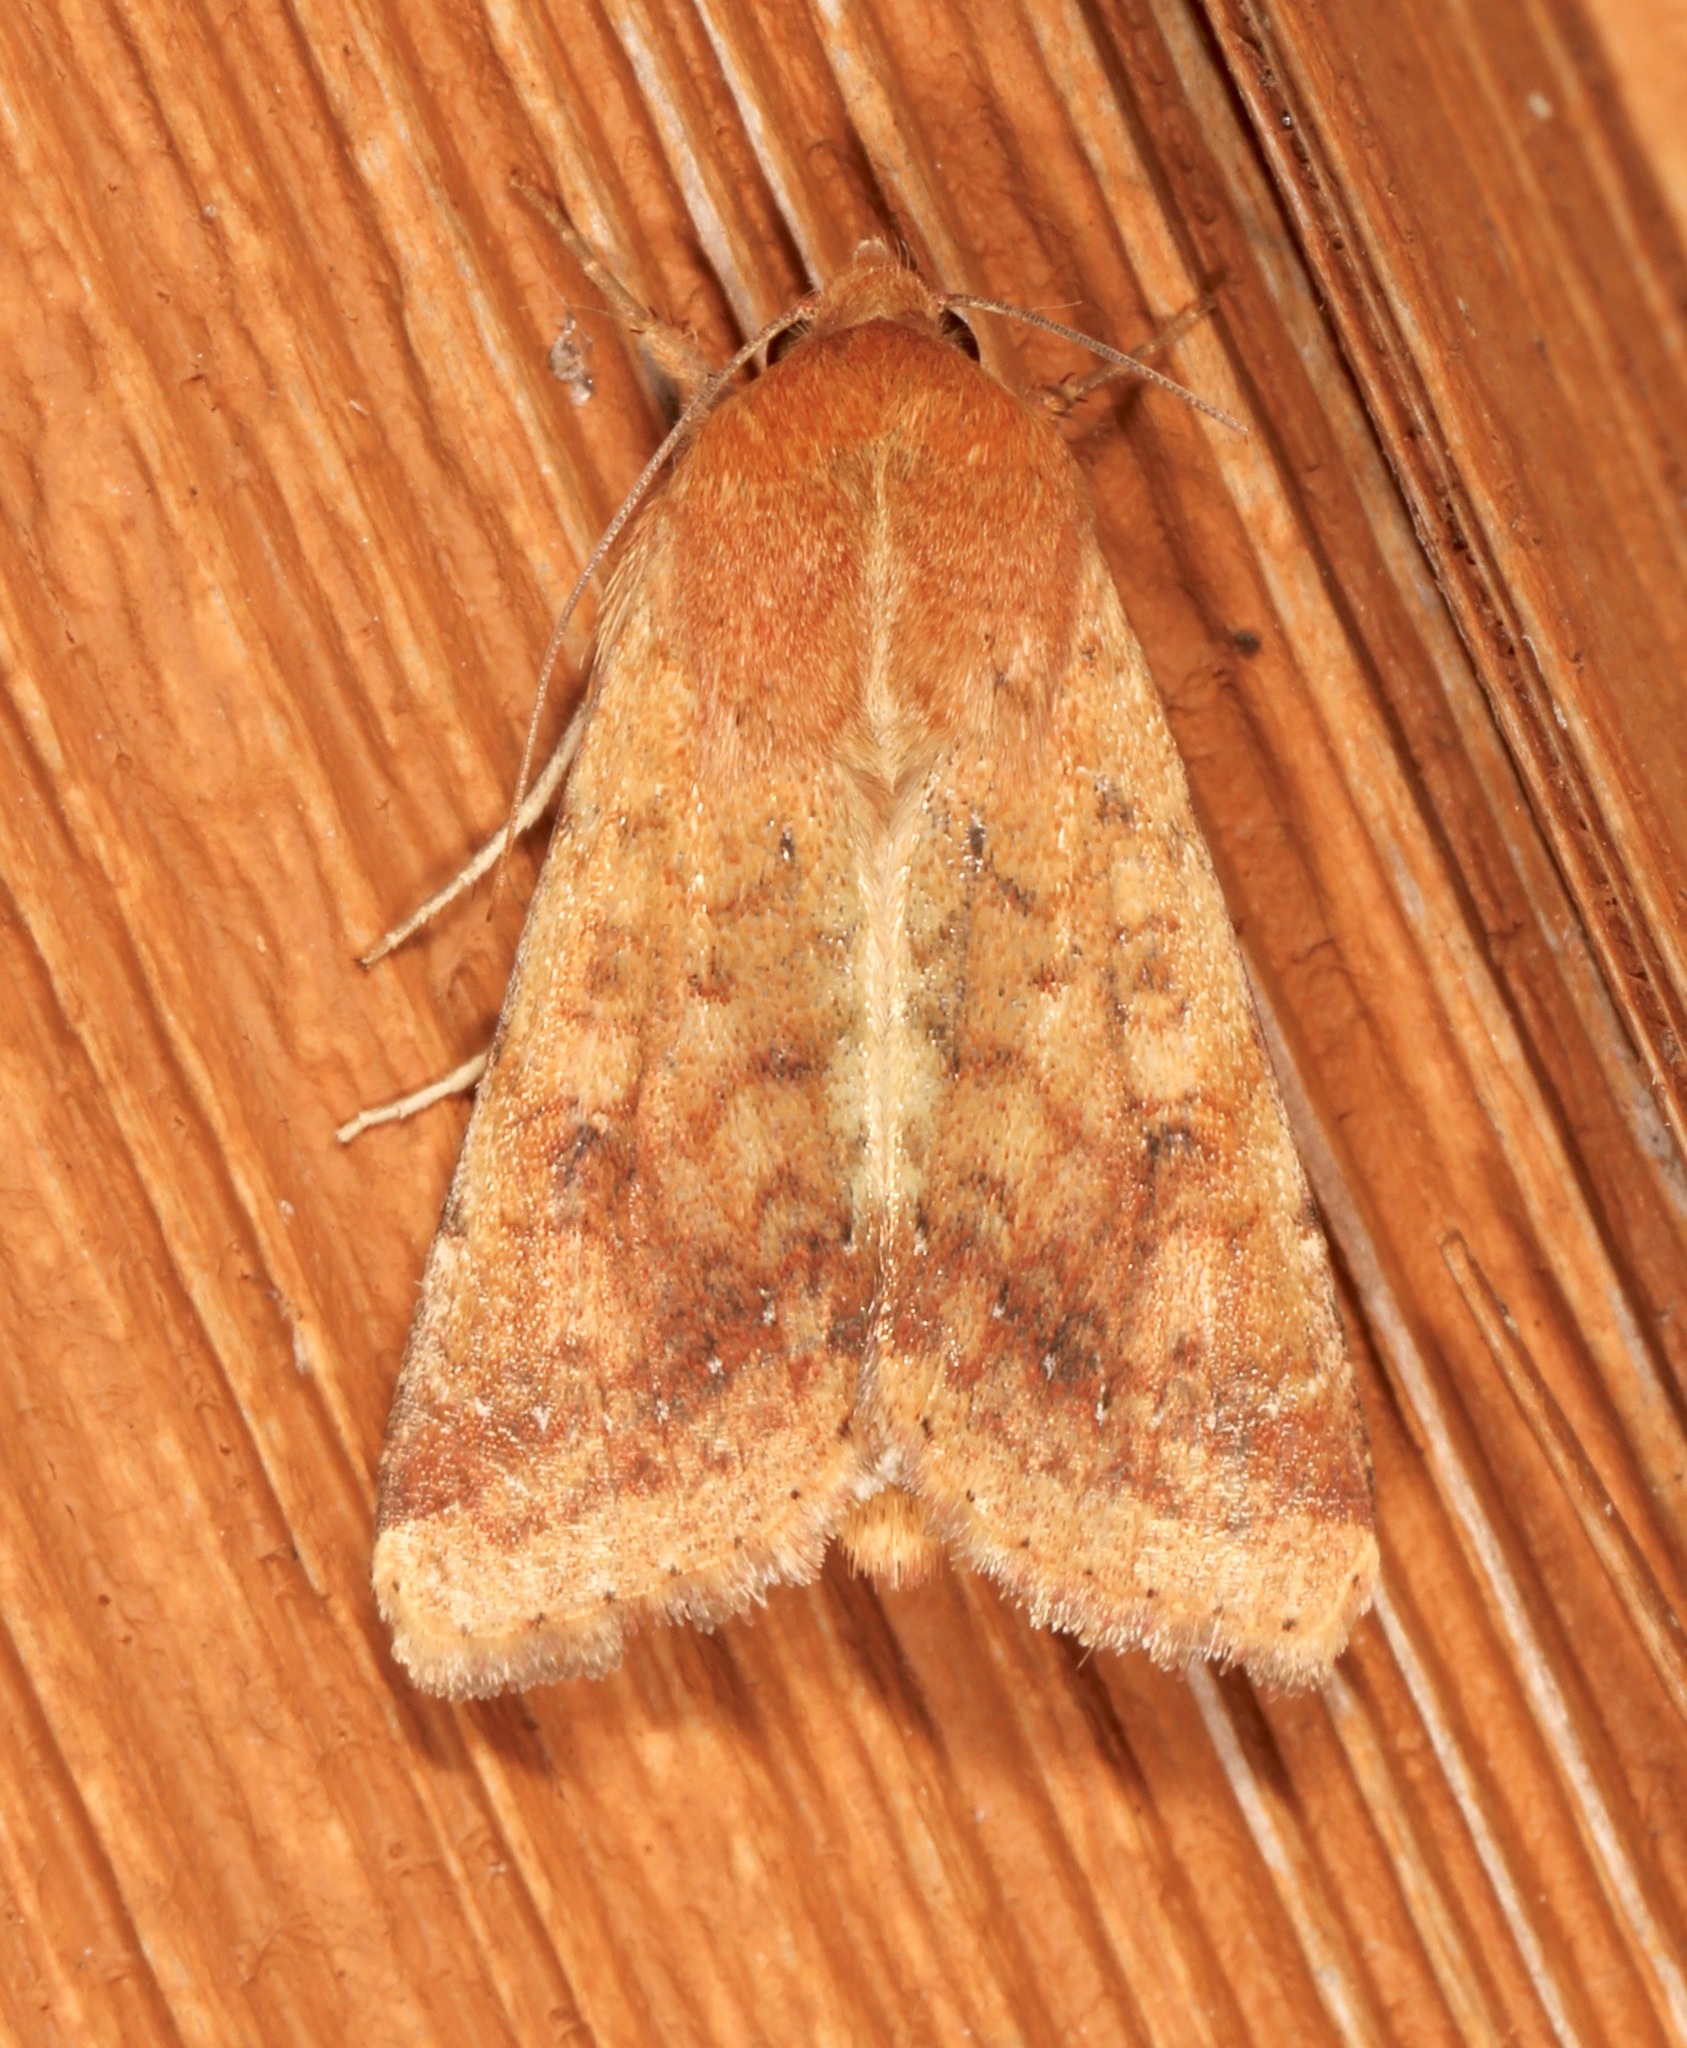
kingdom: Animalia
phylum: Arthropoda
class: Insecta
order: Lepidoptera
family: Noctuidae
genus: Helicoverpa
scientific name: Helicoverpa zea
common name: Bollworm
